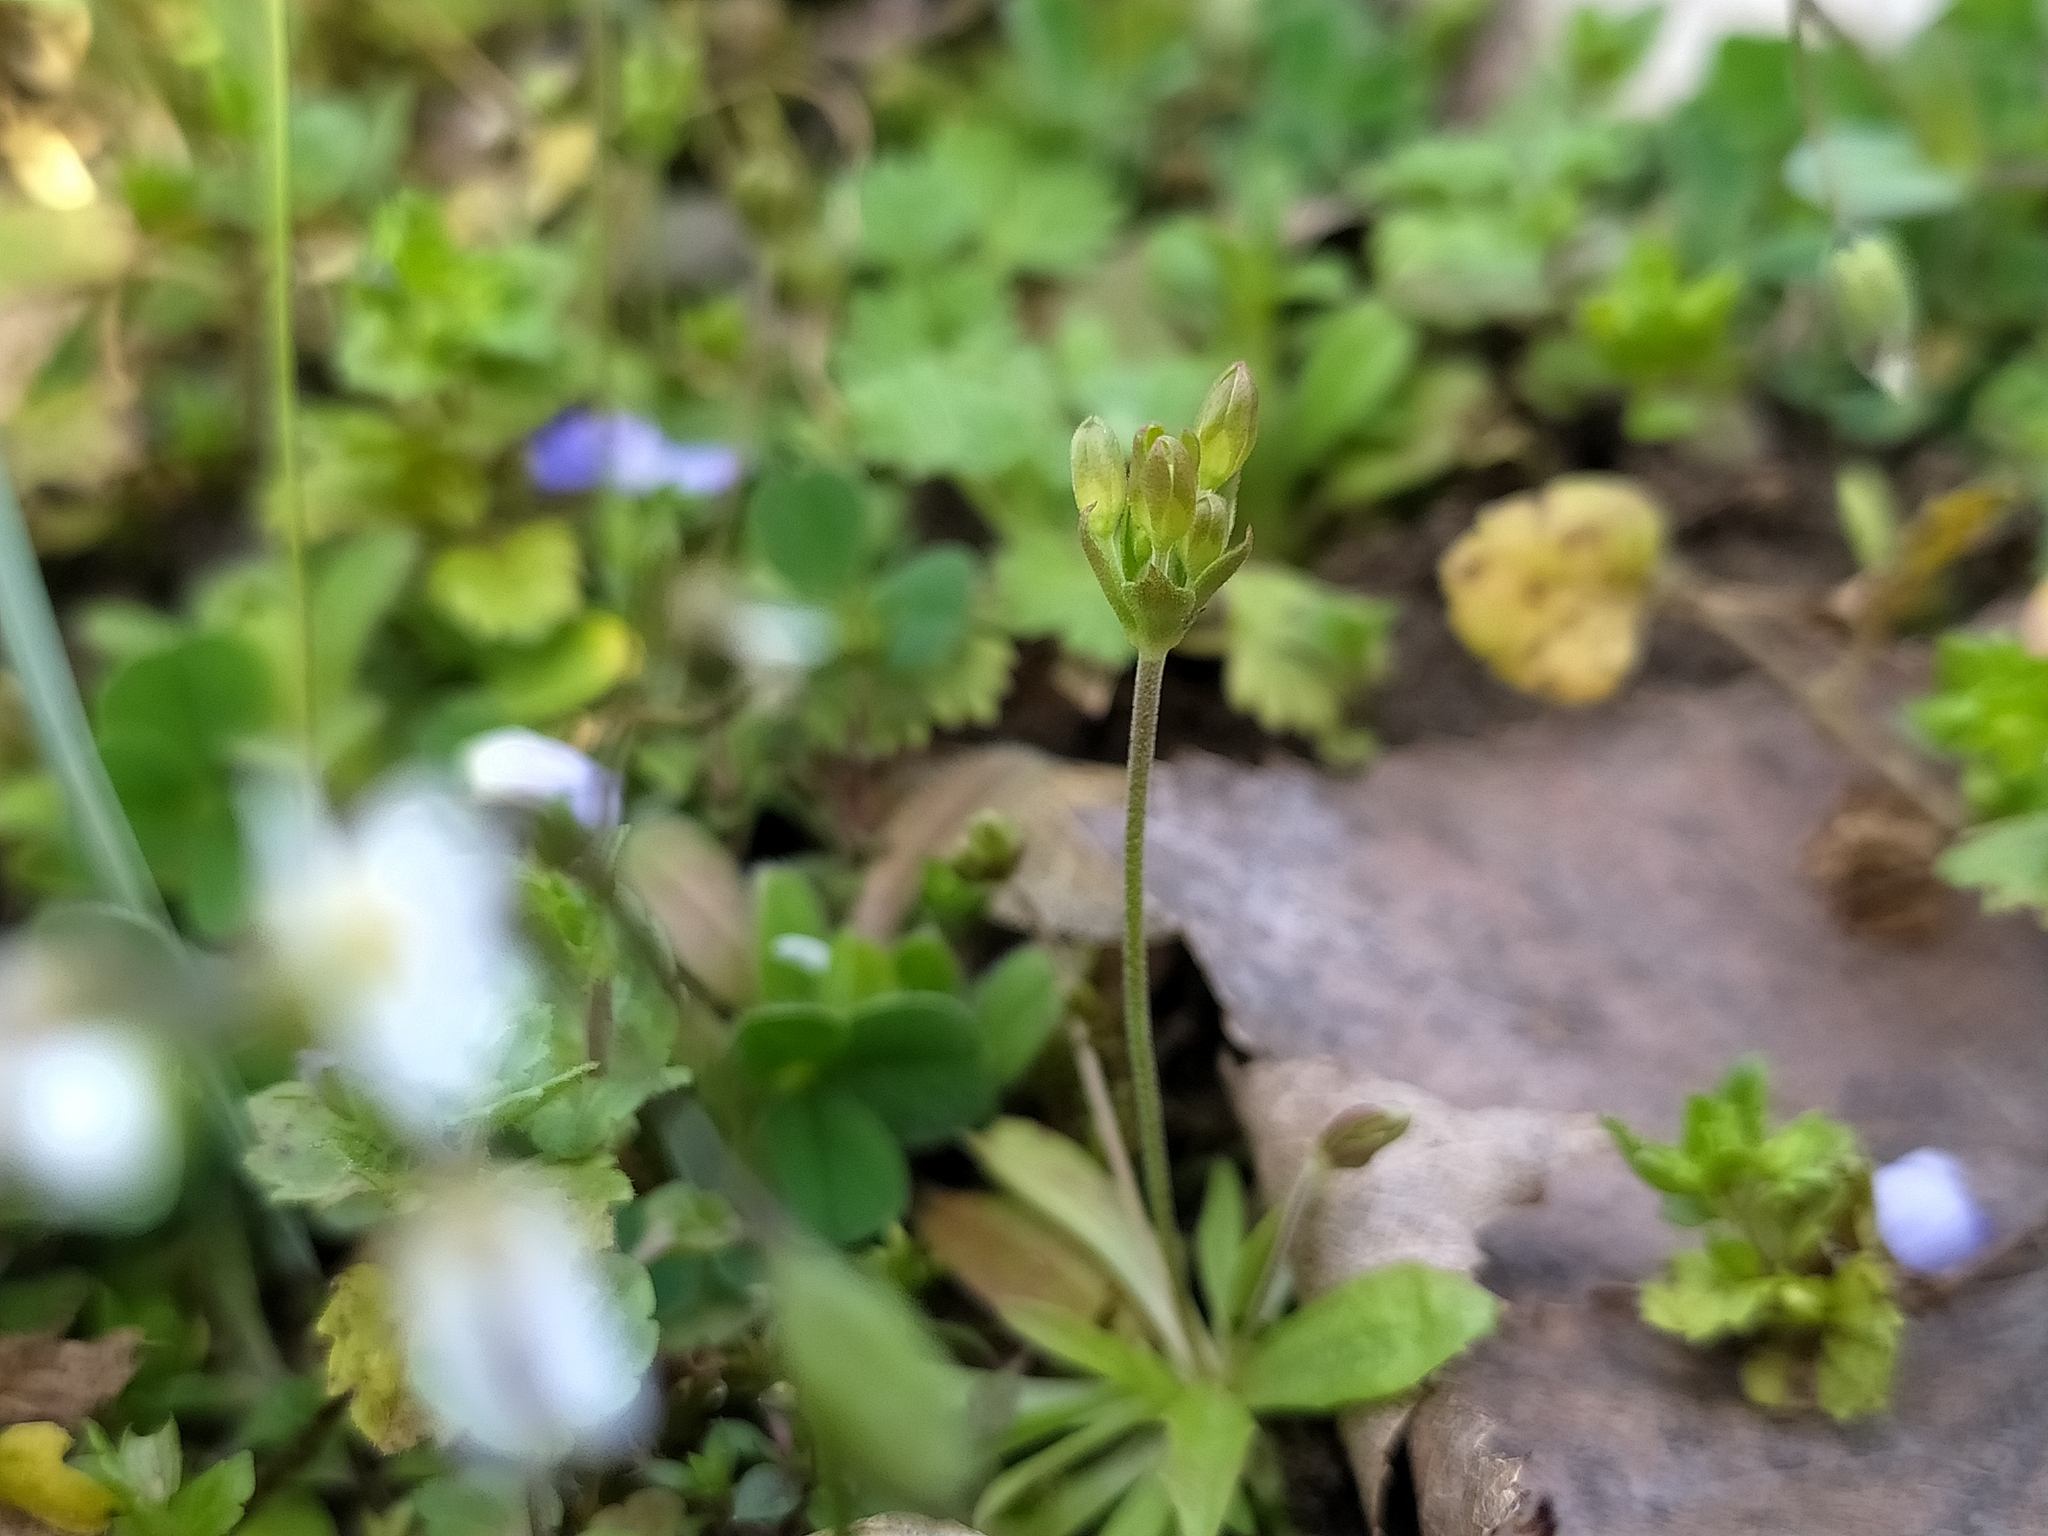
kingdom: Plantae
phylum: Tracheophyta
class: Magnoliopsida
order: Ericales
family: Primulaceae
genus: Androsace
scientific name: Androsace elongata
